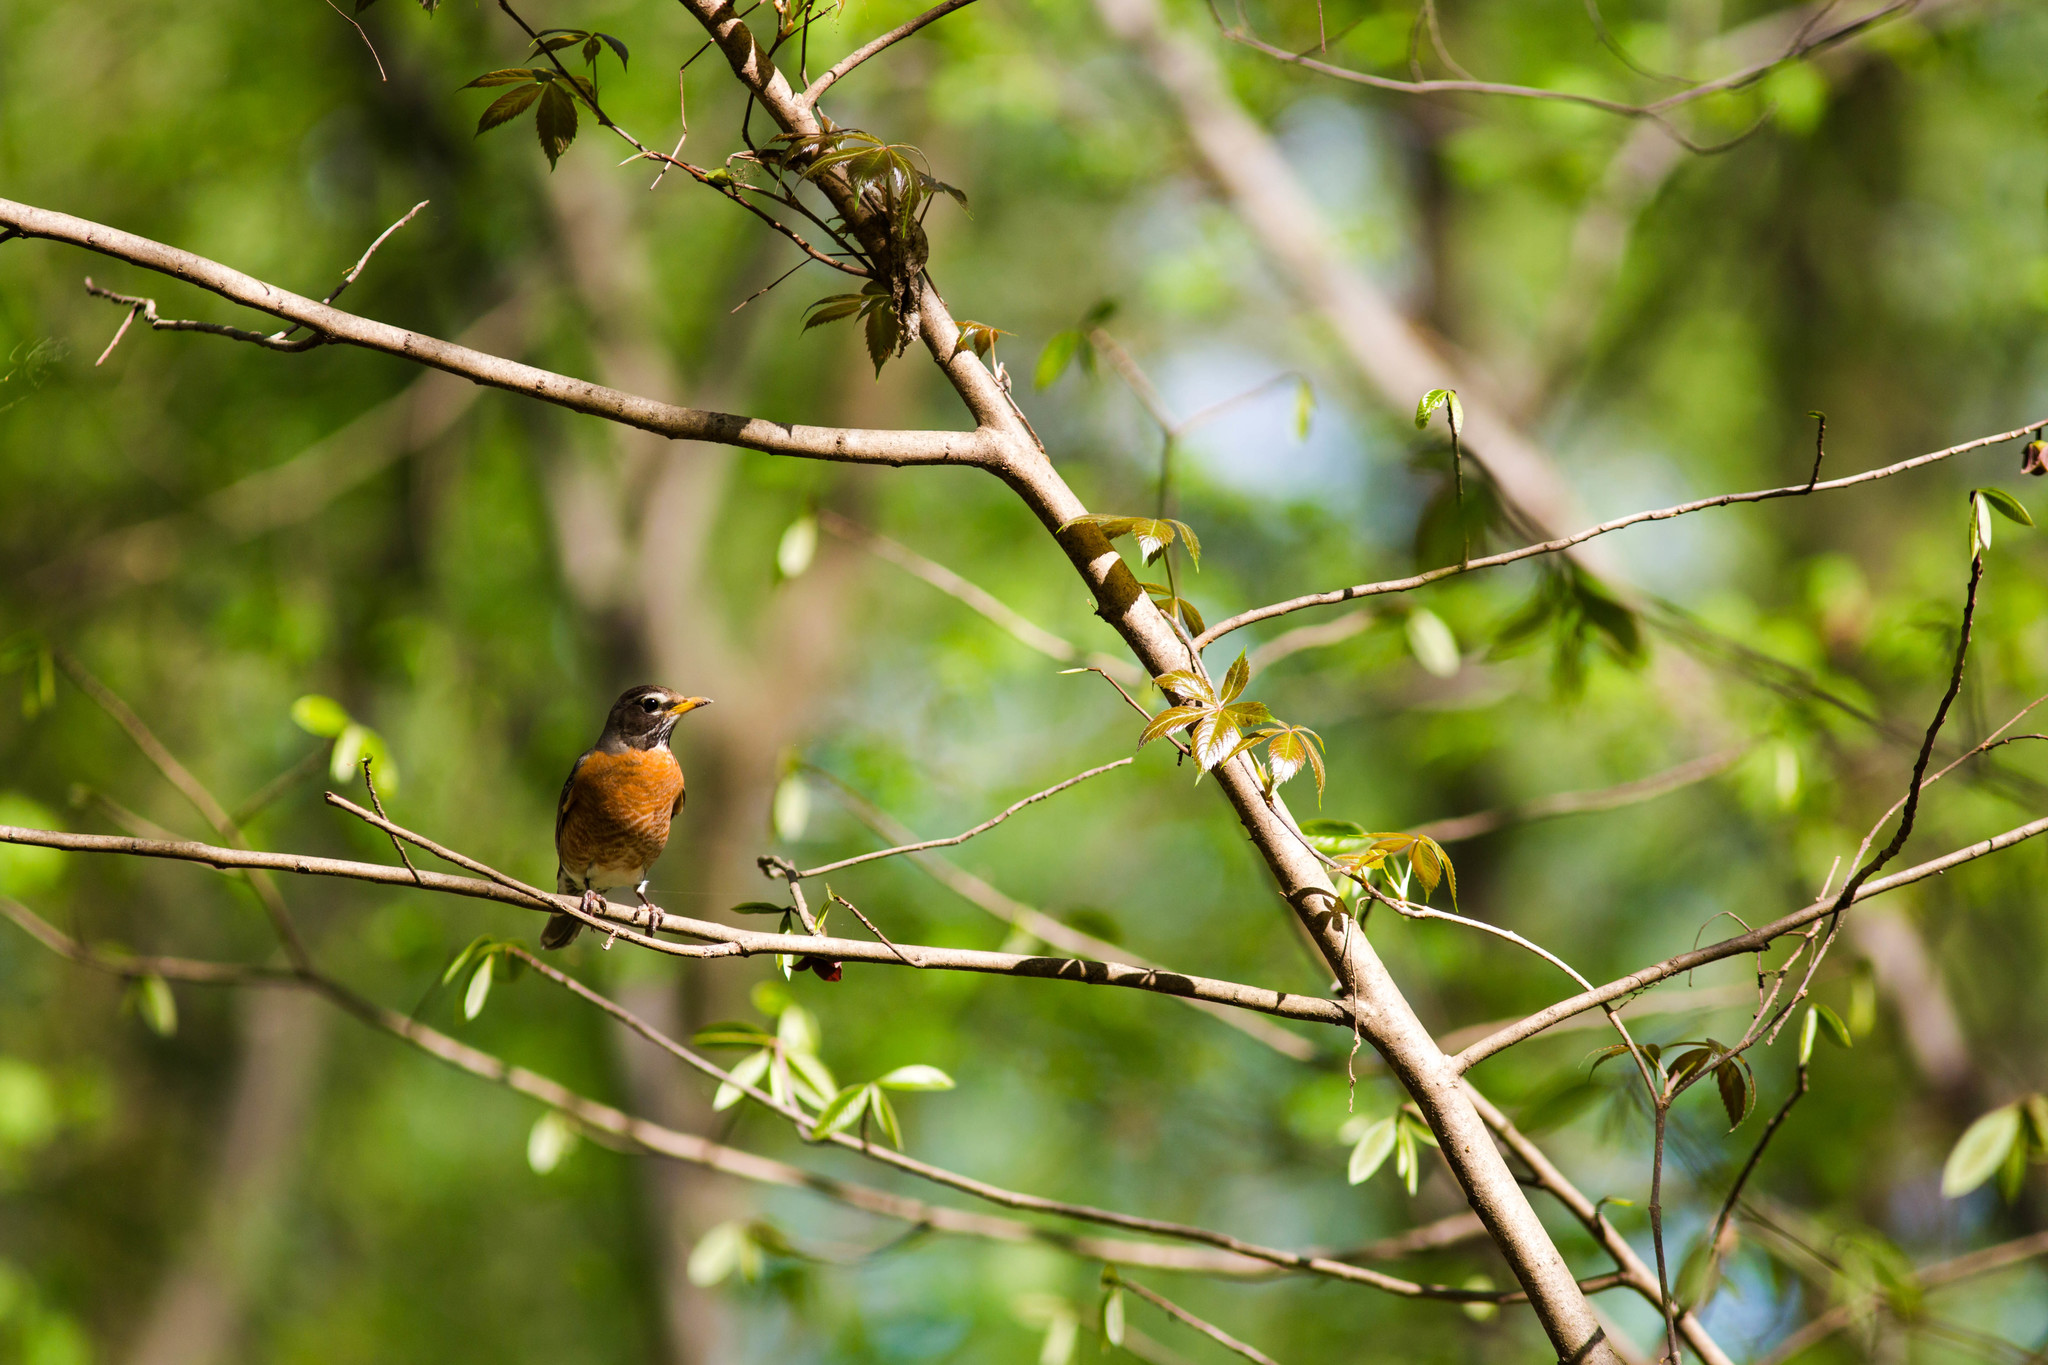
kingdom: Animalia
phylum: Chordata
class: Aves
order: Passeriformes
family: Turdidae
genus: Turdus
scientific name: Turdus migratorius
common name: American robin
